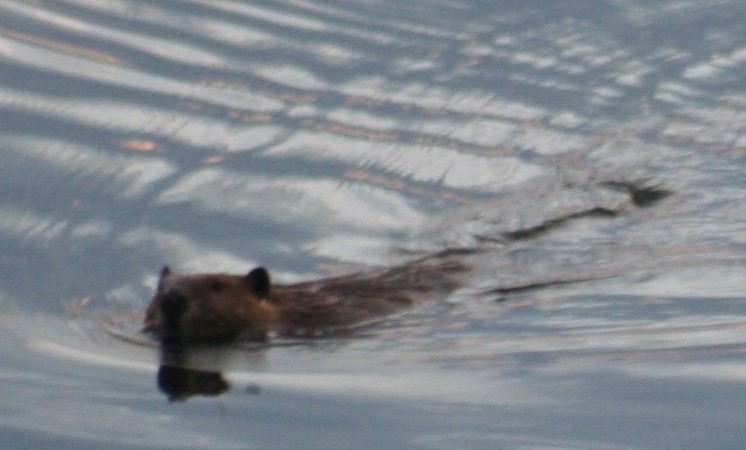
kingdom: Animalia
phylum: Chordata
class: Mammalia
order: Rodentia
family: Castoridae
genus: Castor
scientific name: Castor canadensis
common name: American beaver
